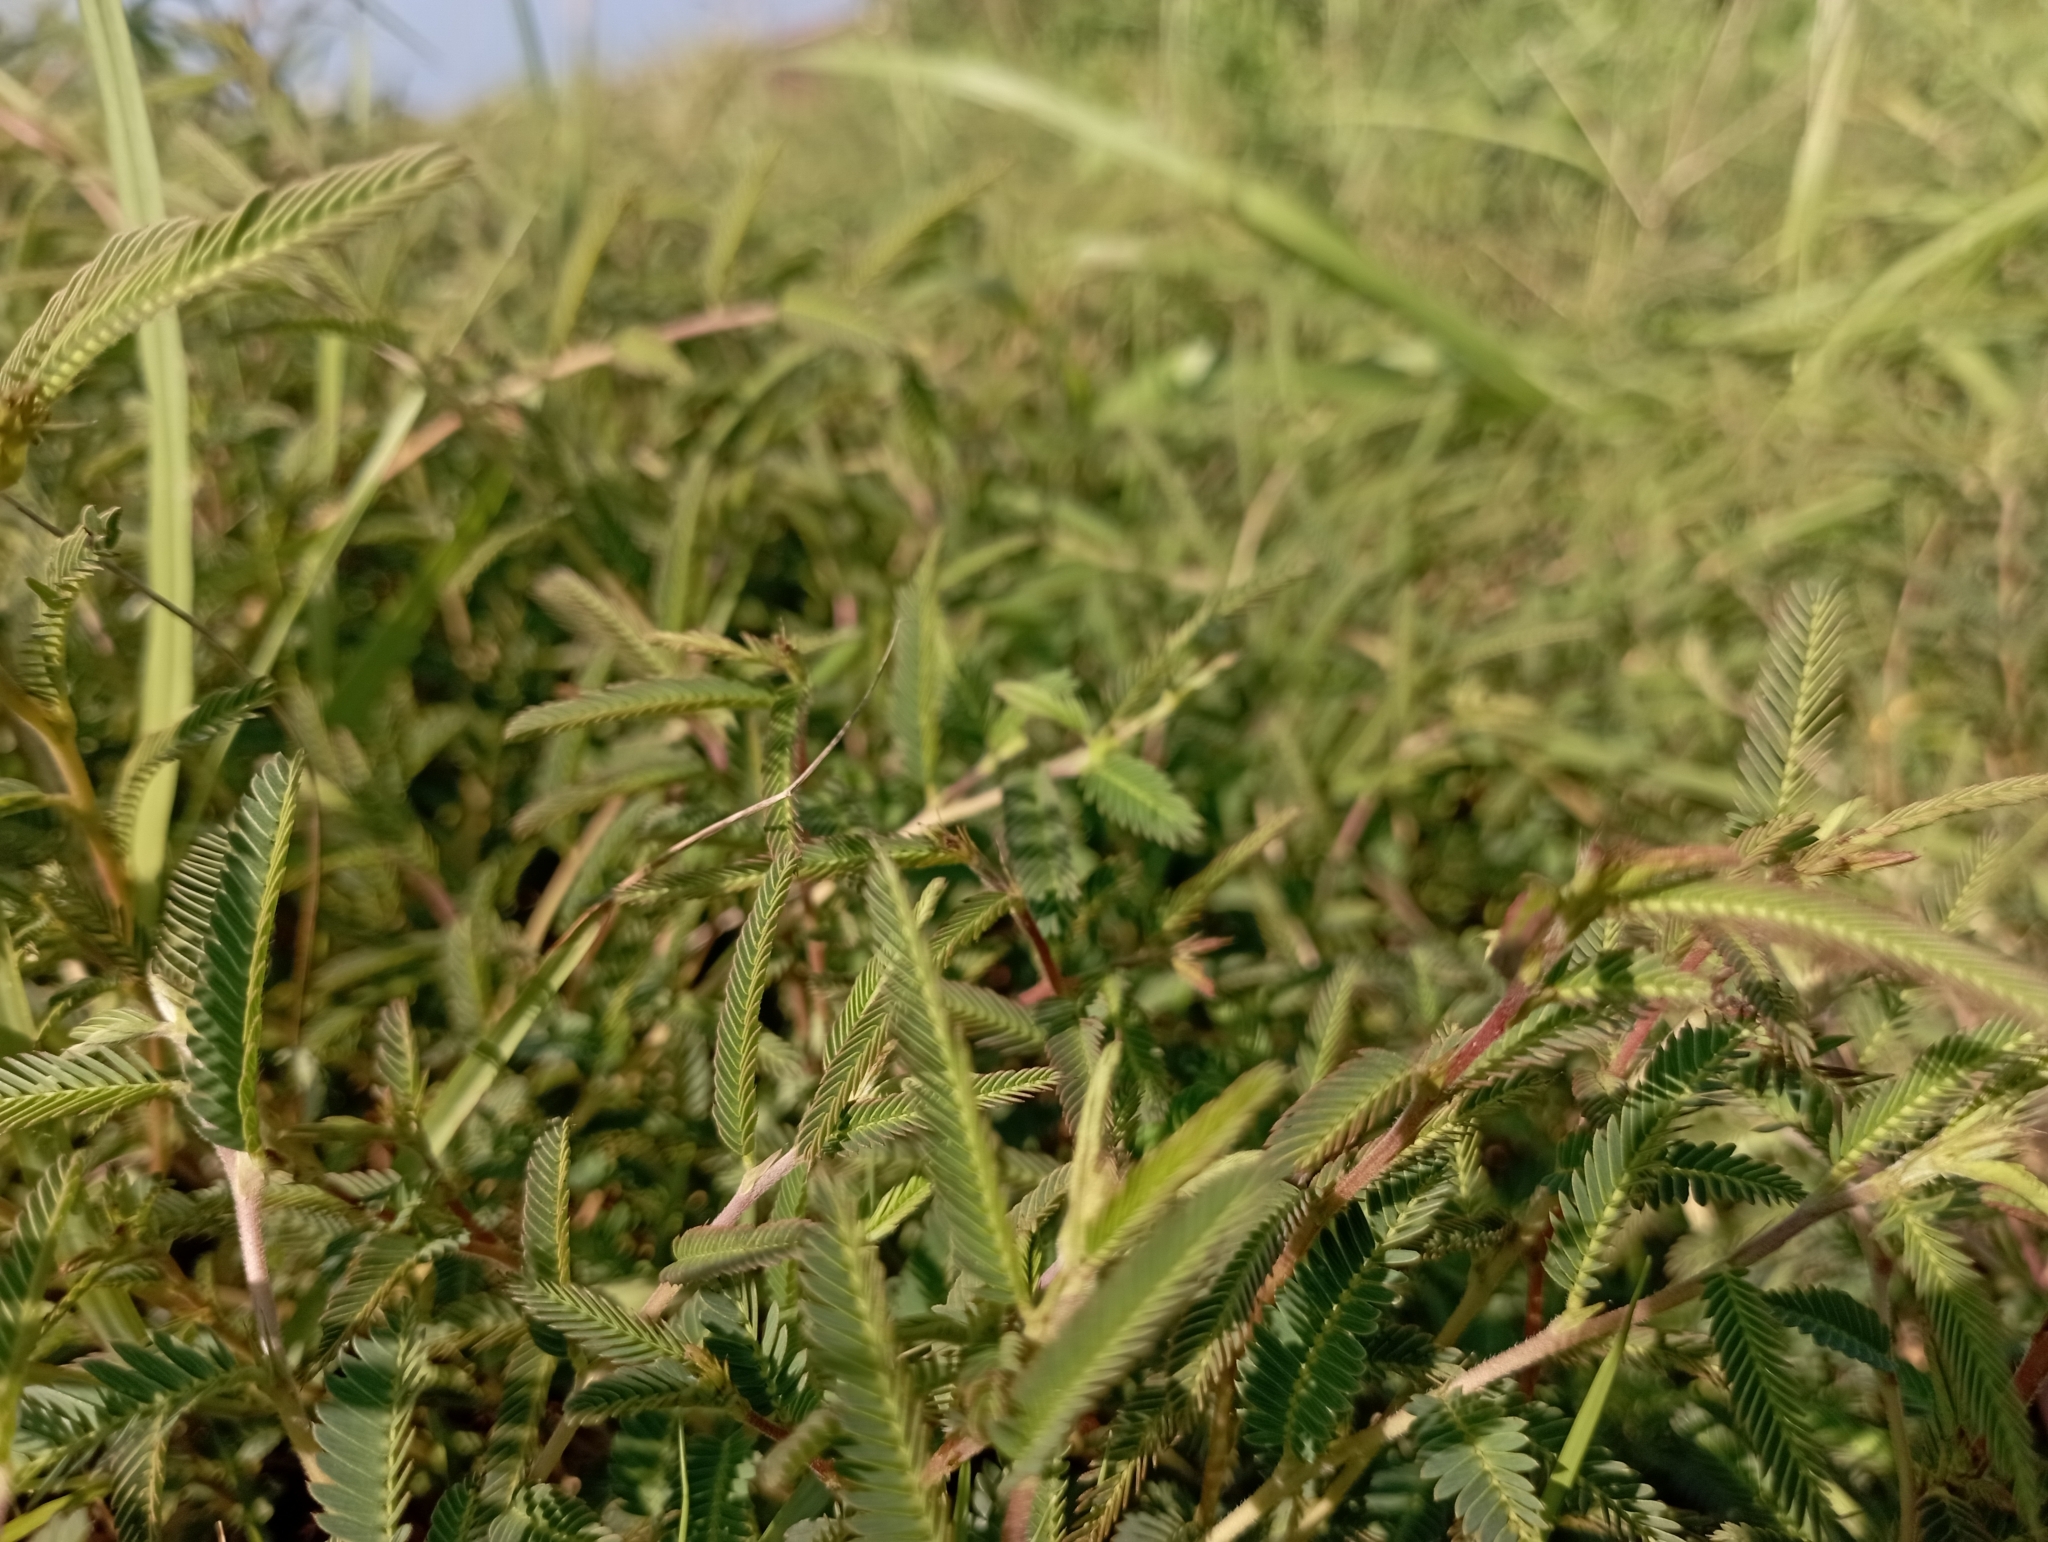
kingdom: Plantae
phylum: Tracheophyta
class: Magnoliopsida
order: Fabales
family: Fabaceae
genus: Chamaecrista
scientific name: Chamaecrista garambiensis
